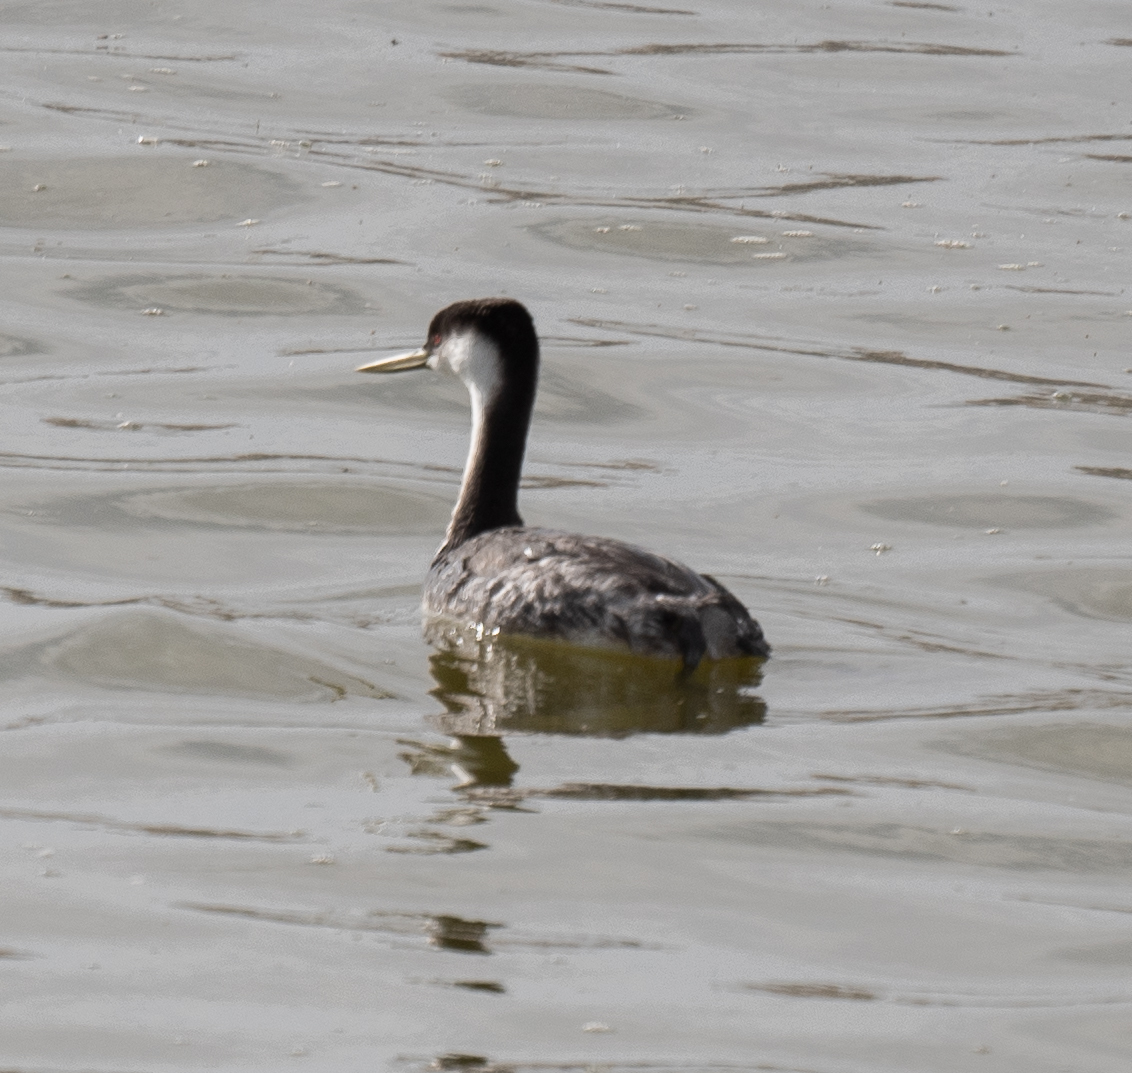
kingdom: Animalia
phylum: Chordata
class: Aves
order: Podicipediformes
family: Podicipedidae
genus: Aechmophorus
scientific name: Aechmophorus occidentalis
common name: Western grebe
